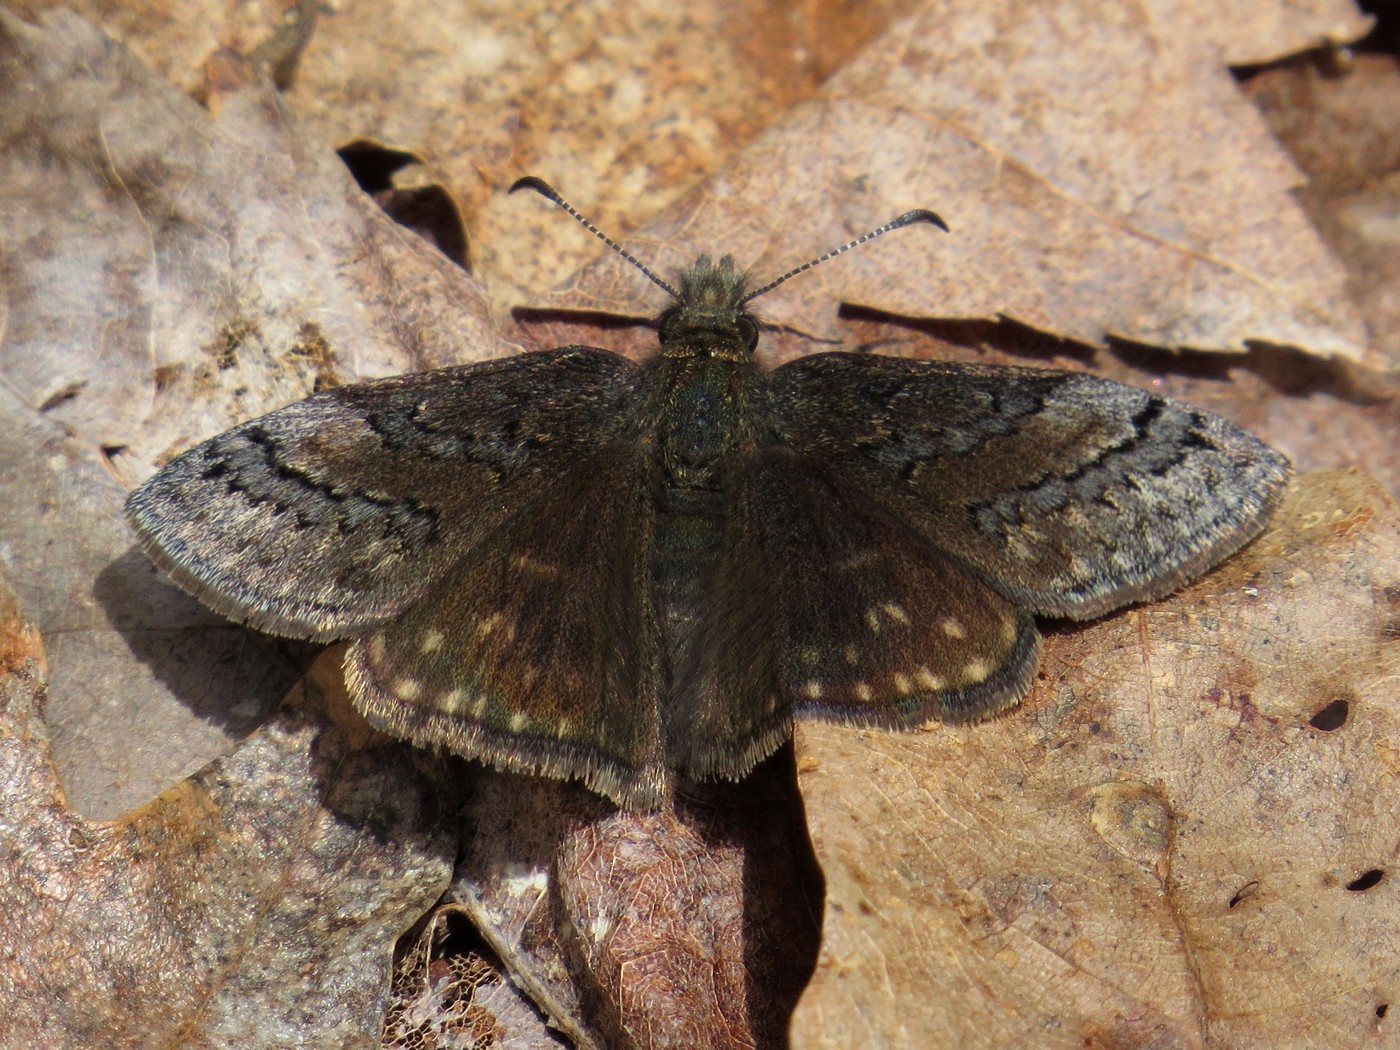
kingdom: Animalia
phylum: Arthropoda
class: Insecta
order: Lepidoptera
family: Hesperiidae
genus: Erynnis
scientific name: Erynnis brizo
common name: Sleepy duskywing
